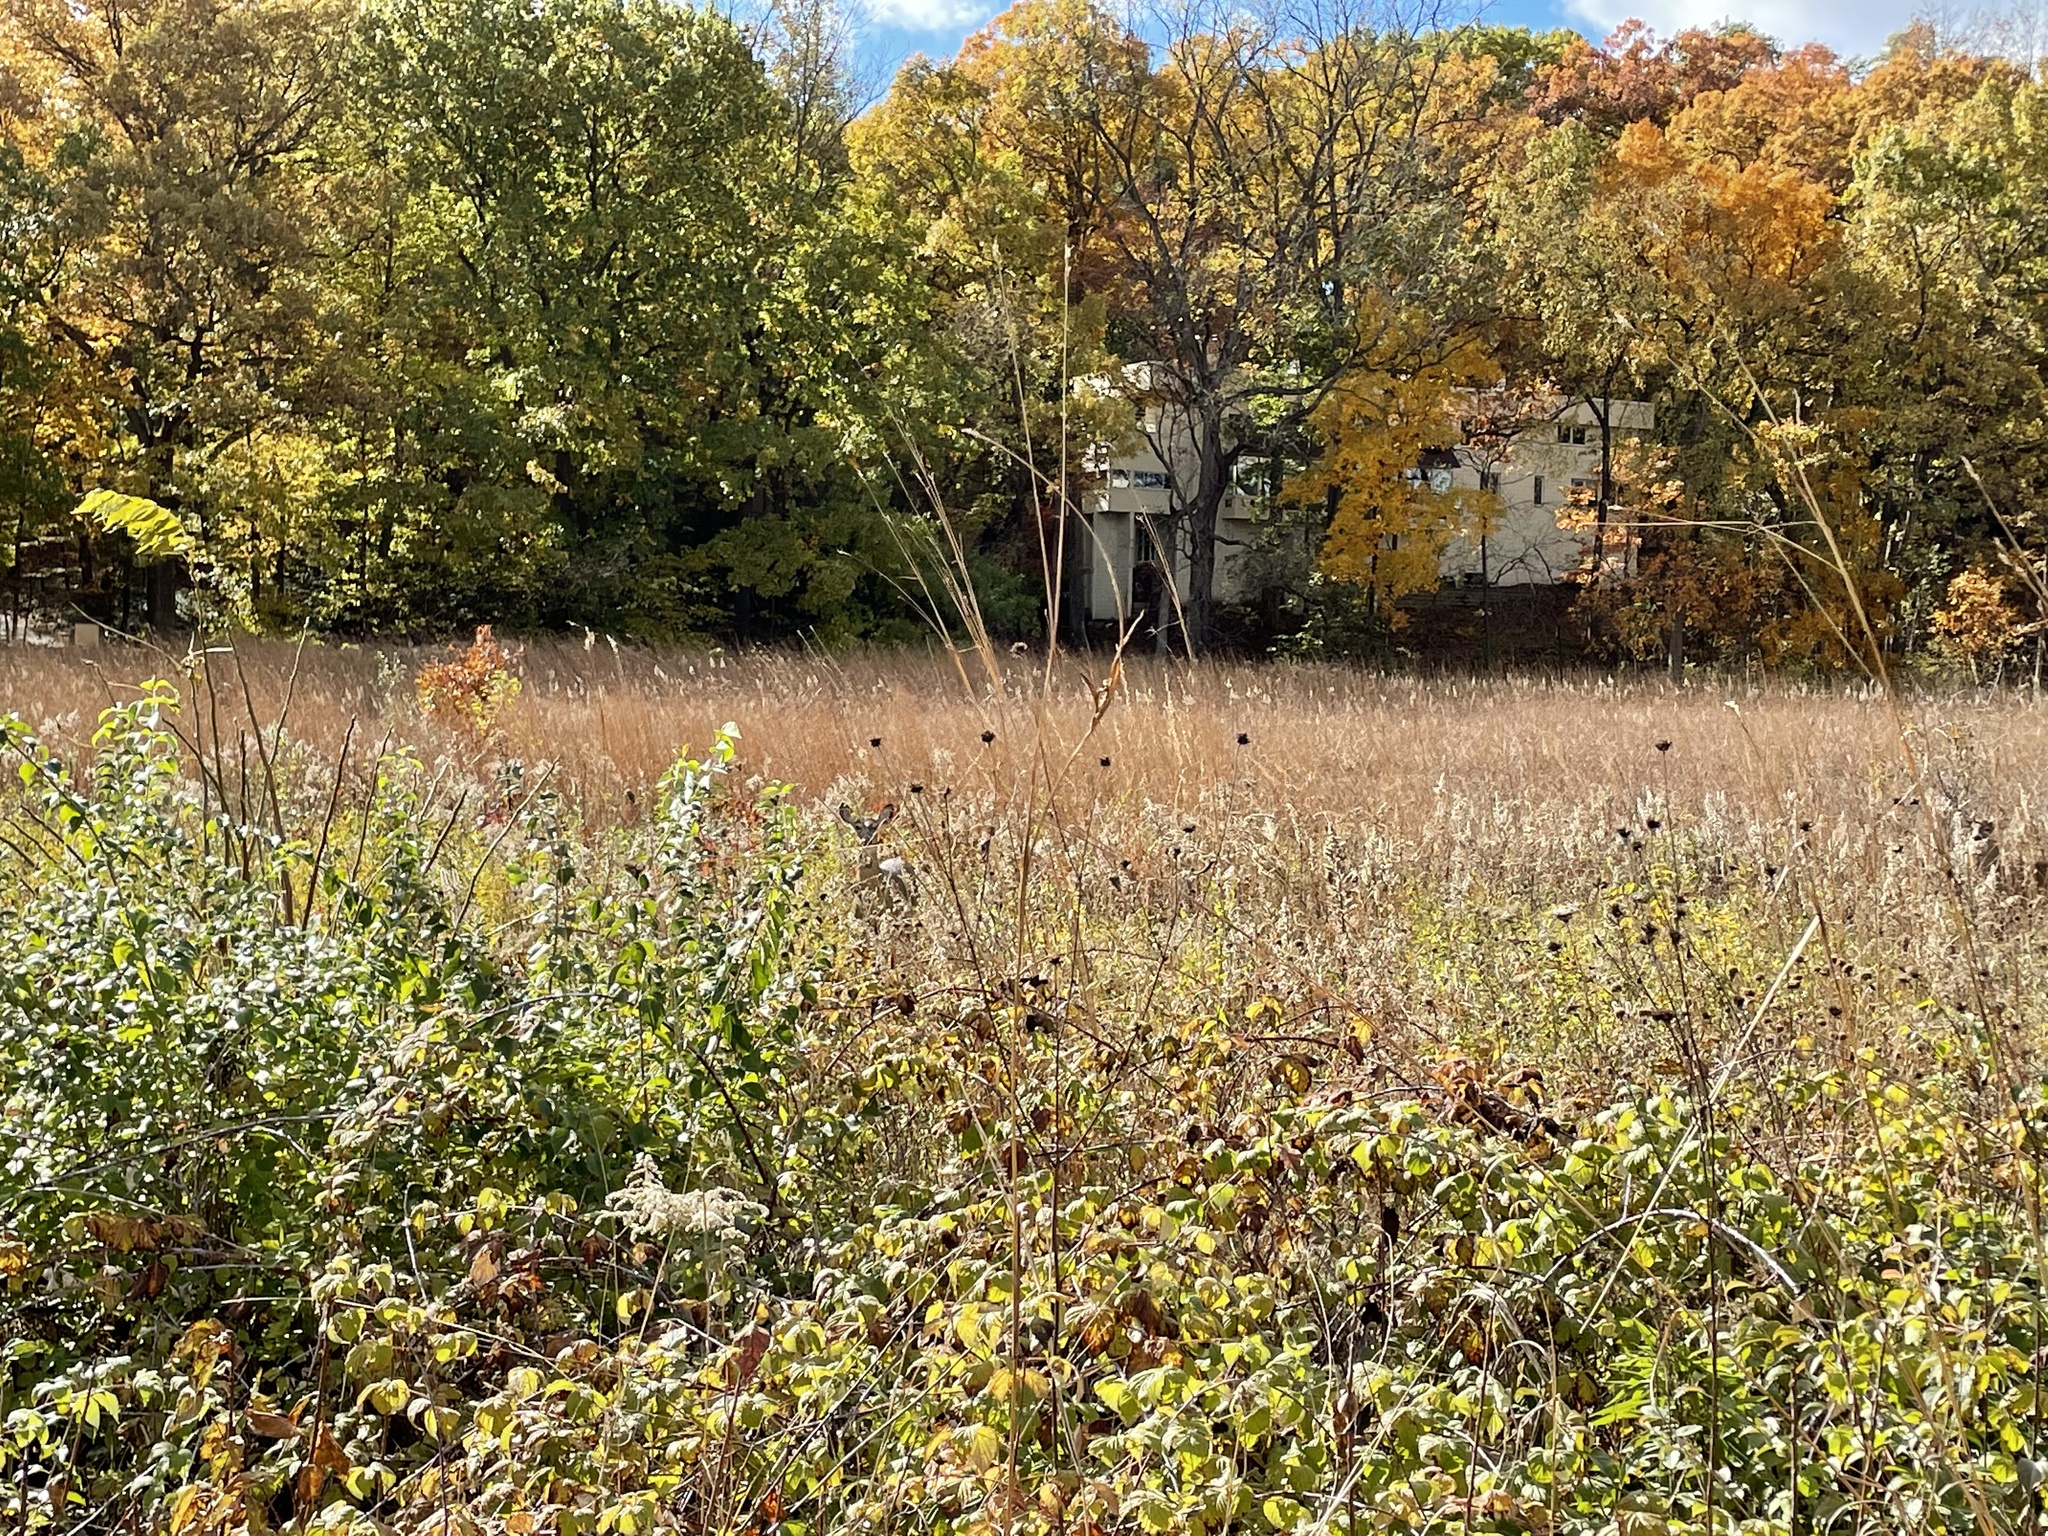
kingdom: Animalia
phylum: Chordata
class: Mammalia
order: Artiodactyla
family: Cervidae
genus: Odocoileus
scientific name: Odocoileus virginianus
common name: White-tailed deer
